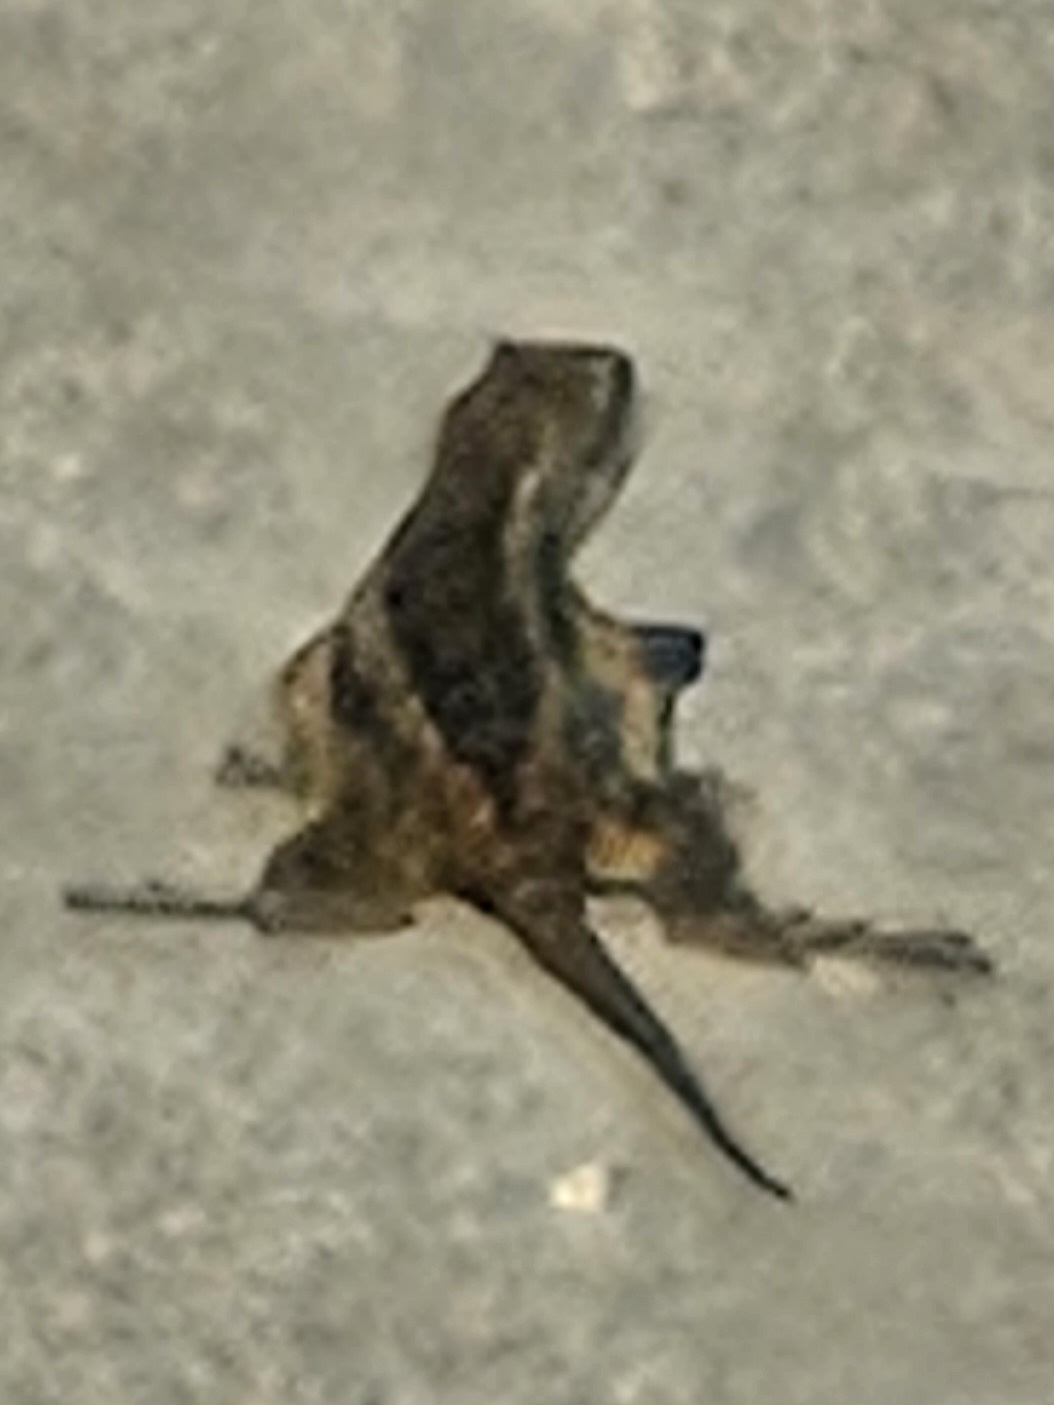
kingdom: Animalia
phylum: Chordata
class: Squamata
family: Phrynosomatidae
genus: Sceloporus
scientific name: Sceloporus olivaceus
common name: Texas spiny lizard
